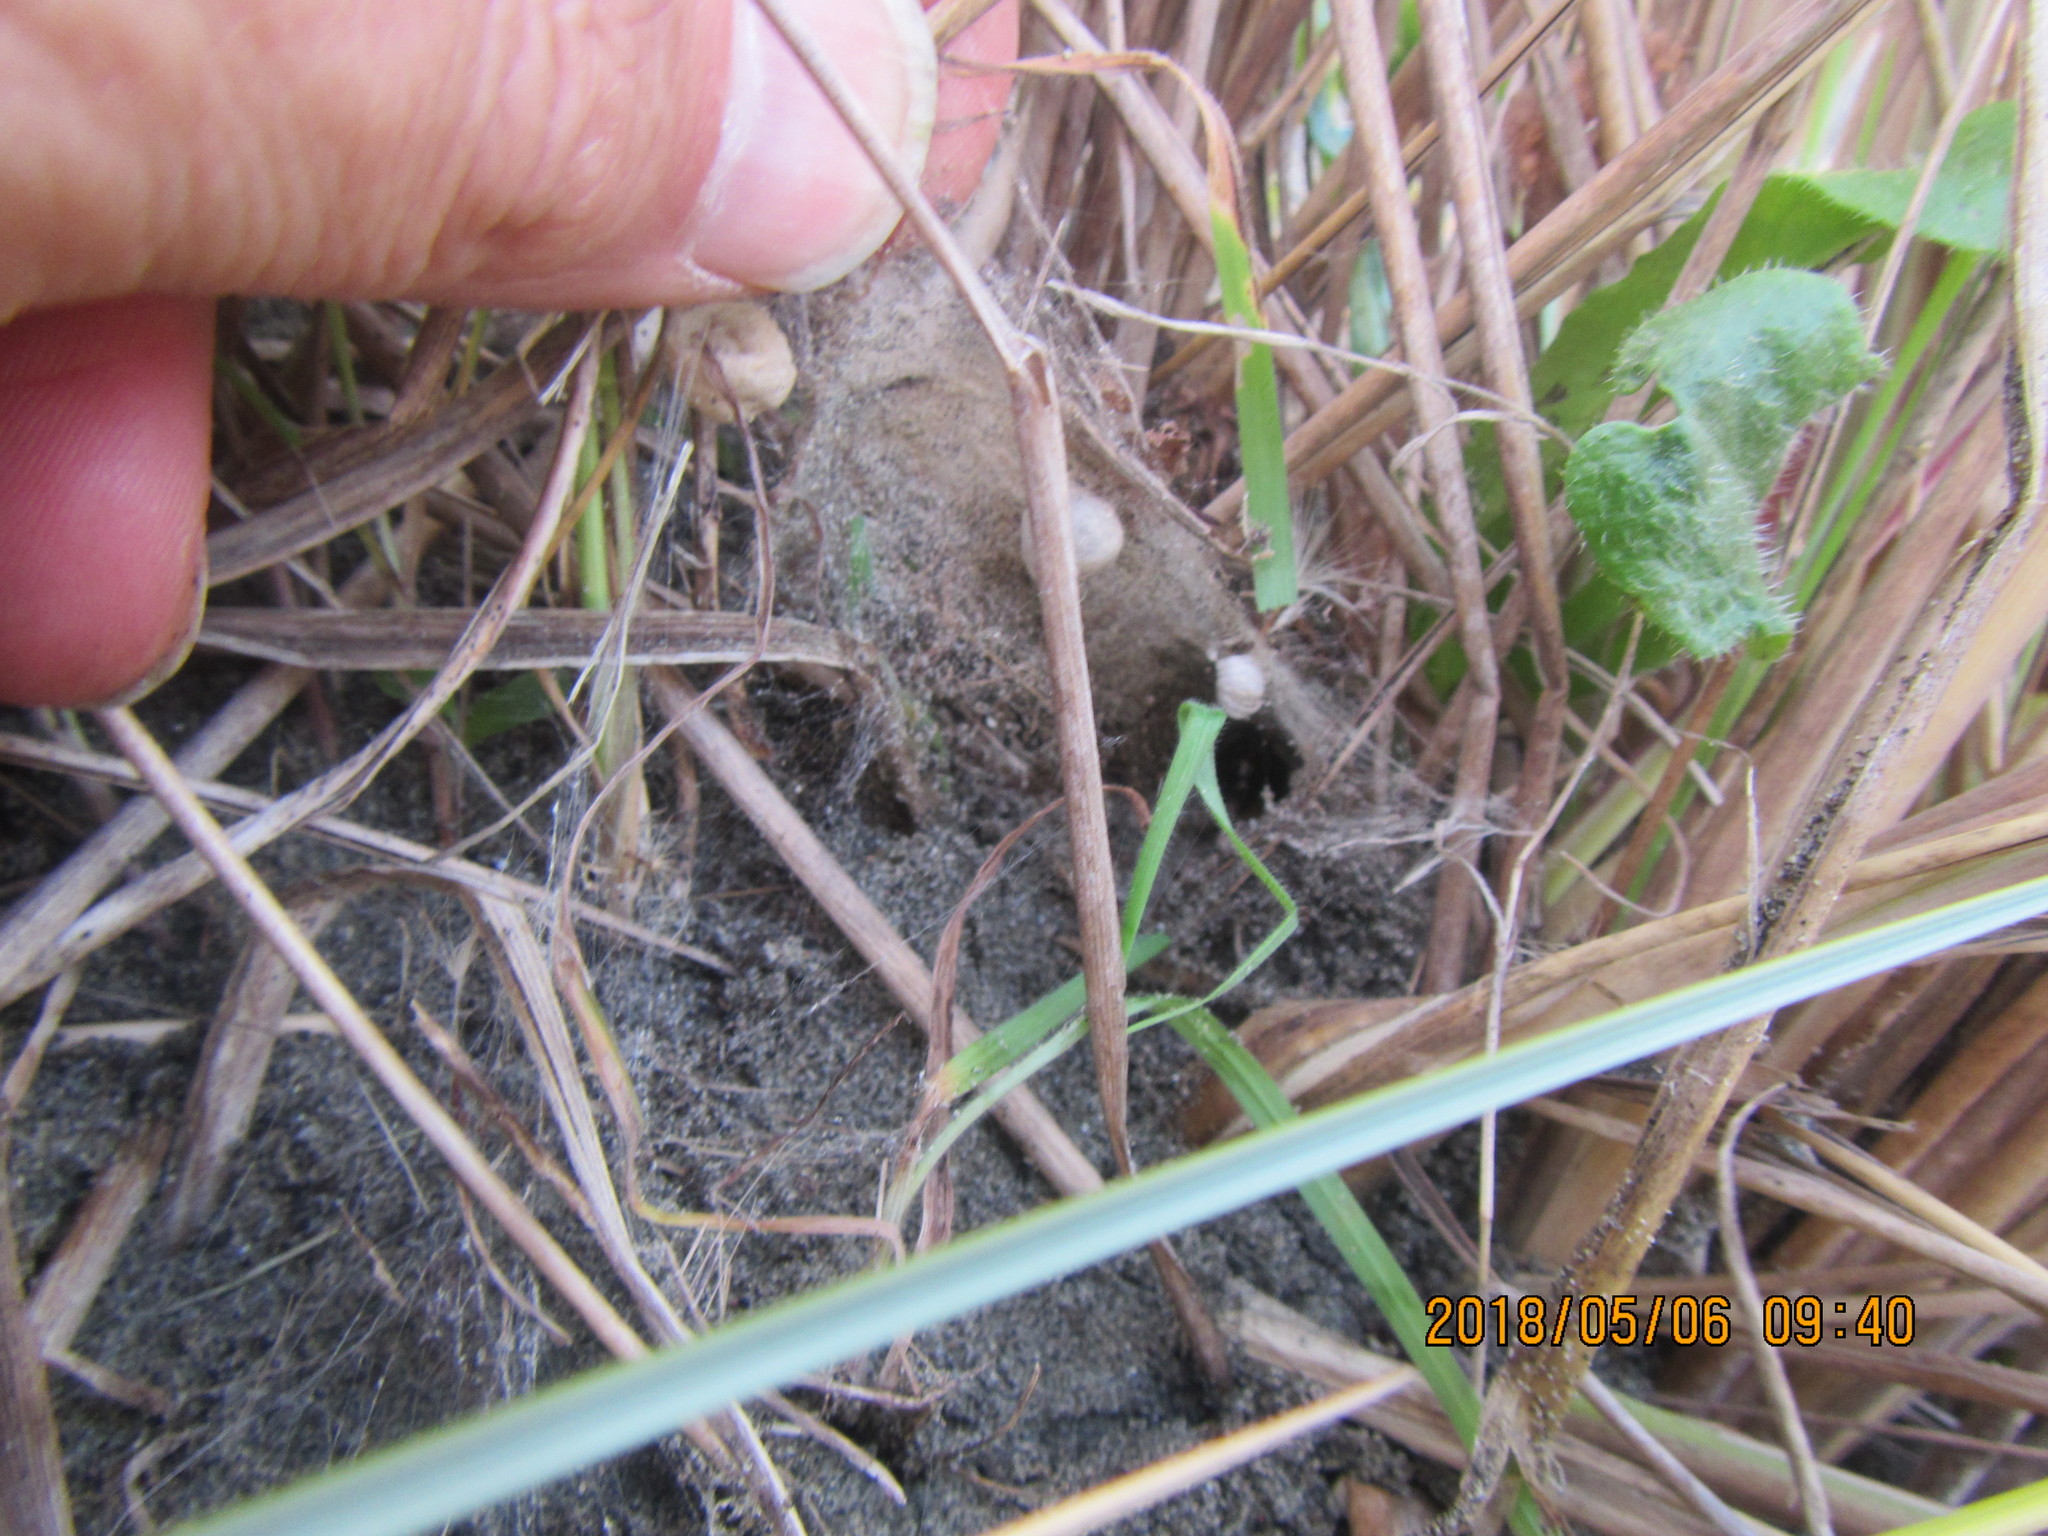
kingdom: Animalia
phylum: Arthropoda
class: Arachnida
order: Araneae
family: Theridiidae
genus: Latrodectus
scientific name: Latrodectus katipo
